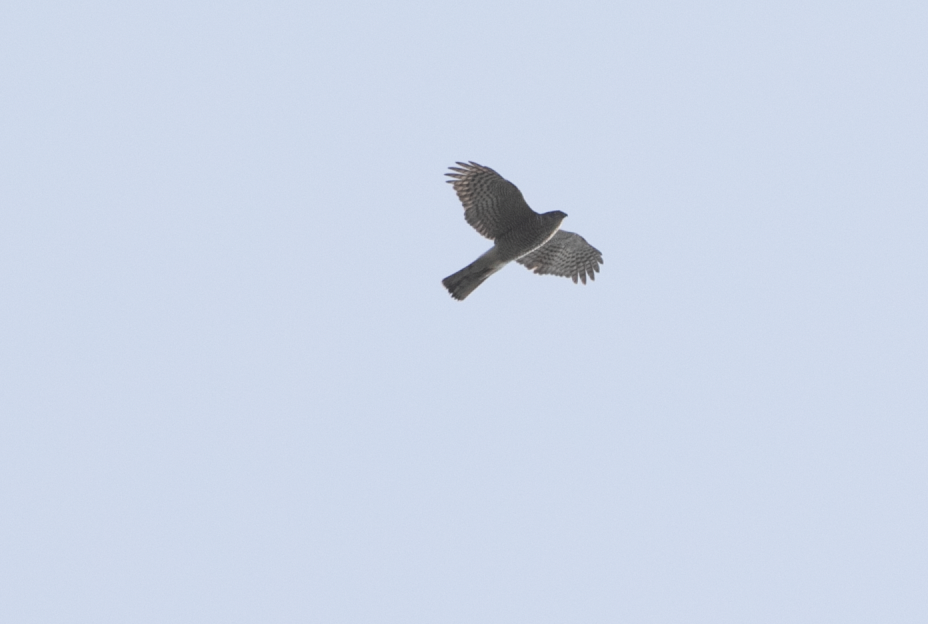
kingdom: Animalia
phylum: Chordata
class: Aves
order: Accipitriformes
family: Accipitridae
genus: Accipiter
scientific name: Accipiter nisus
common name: Eurasian sparrowhawk
